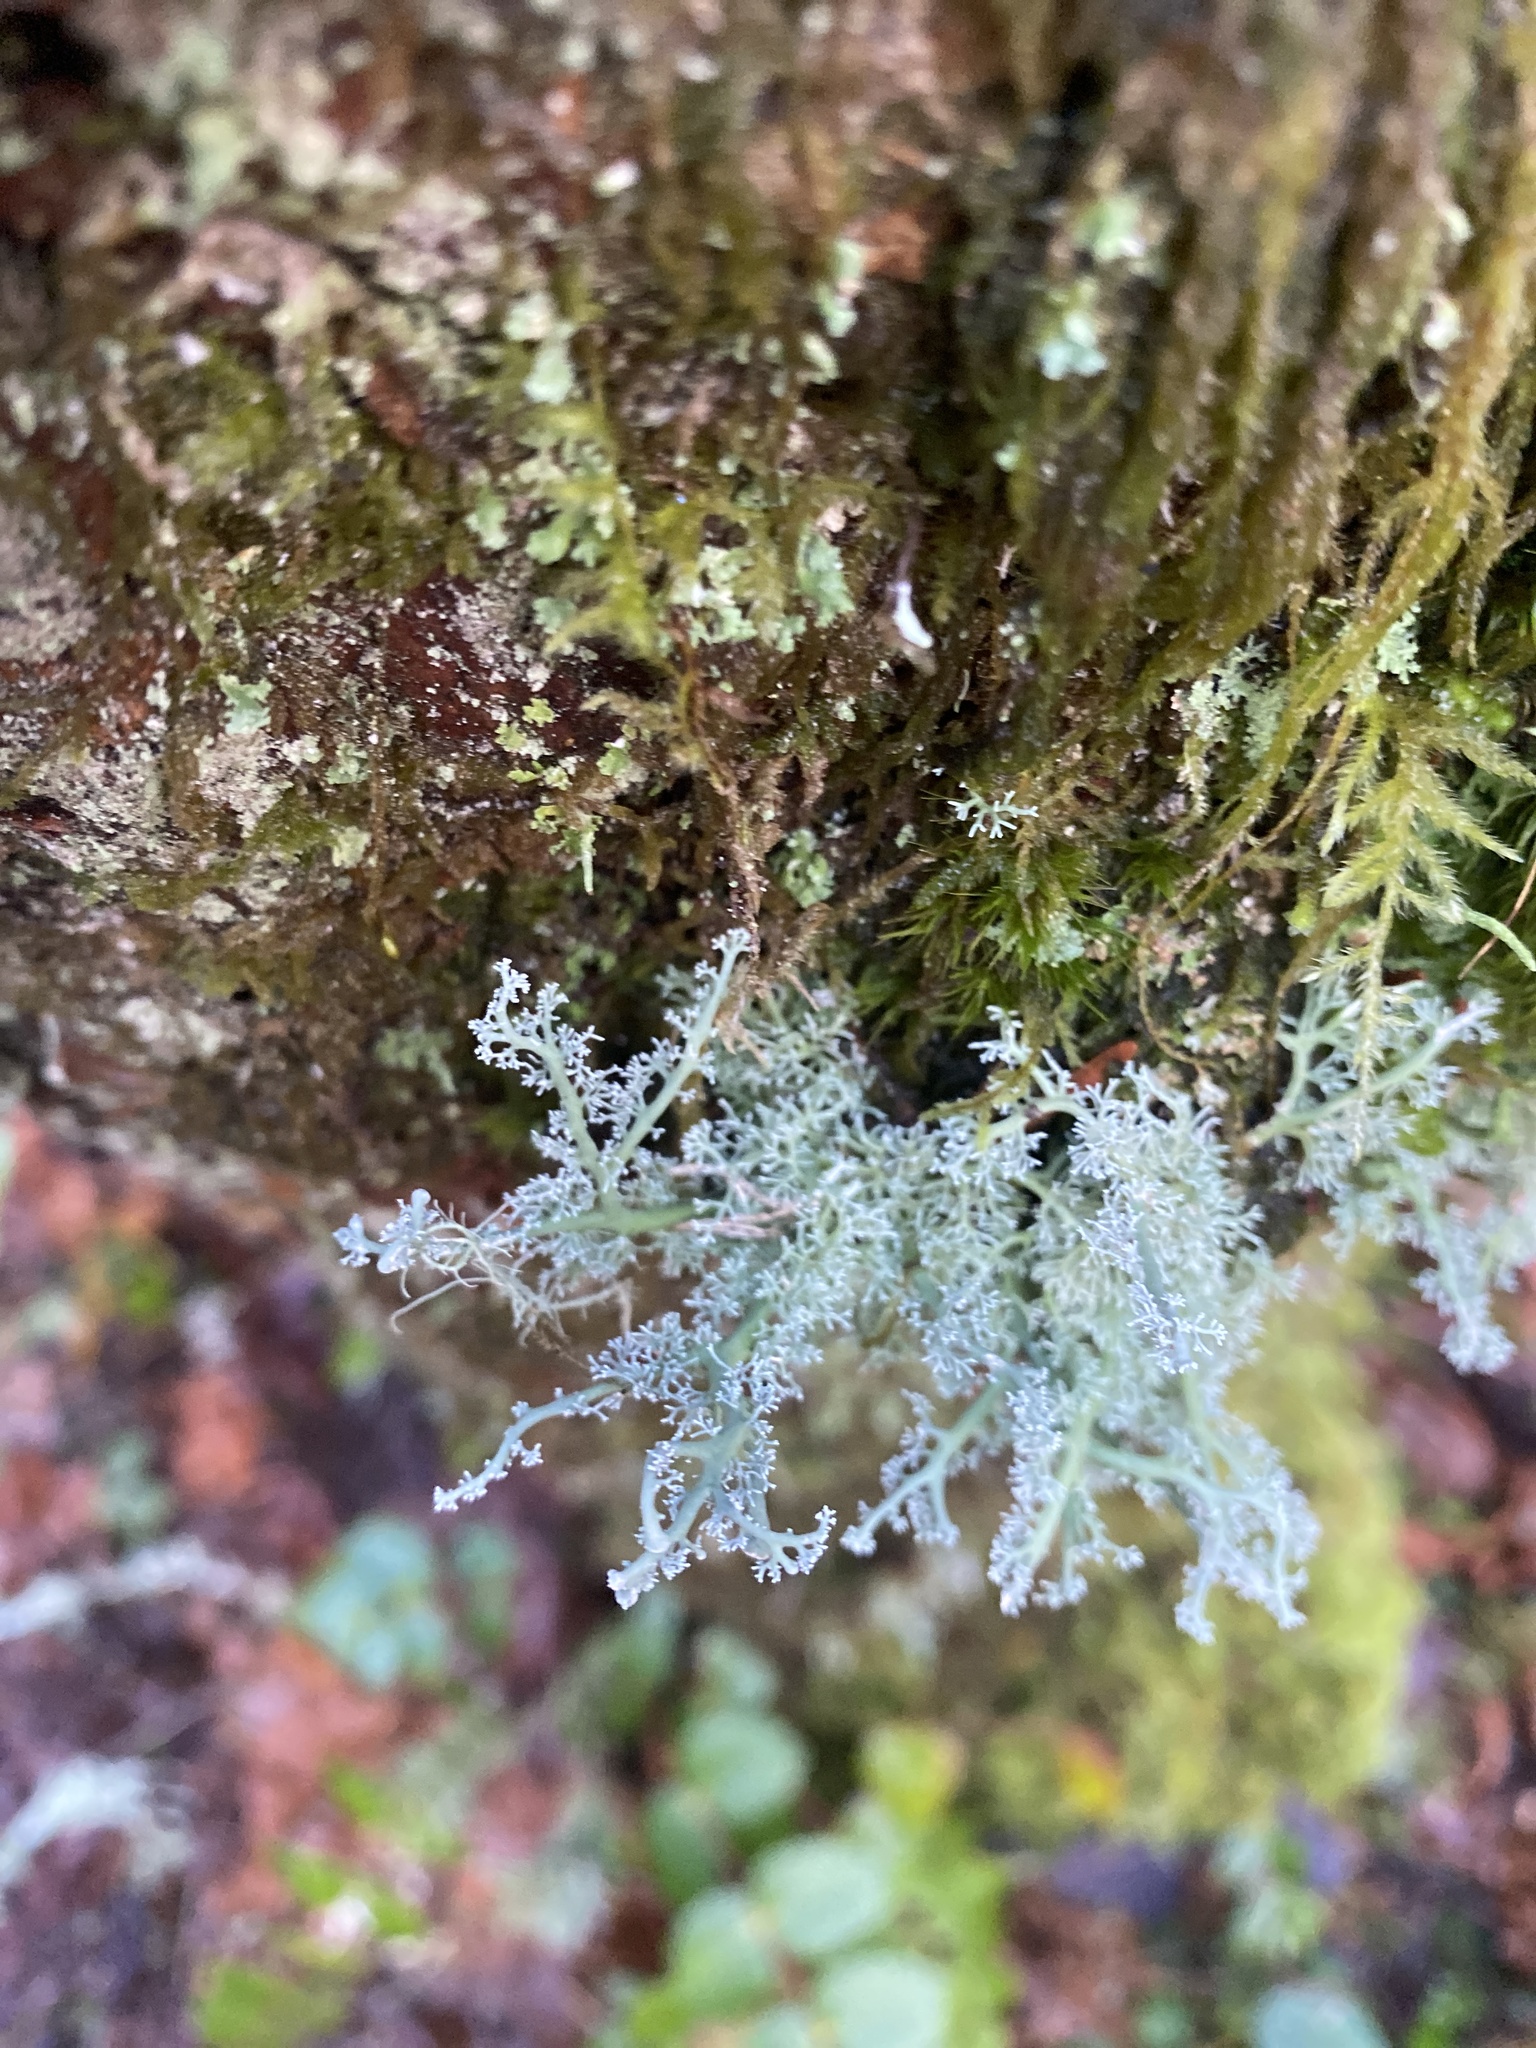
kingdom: Fungi
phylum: Ascomycota
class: Lecanoromycetes
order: Lecanorales
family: Sphaerophoraceae
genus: Sphaerophorus
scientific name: Sphaerophorus globosus
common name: Globe ball lichen
